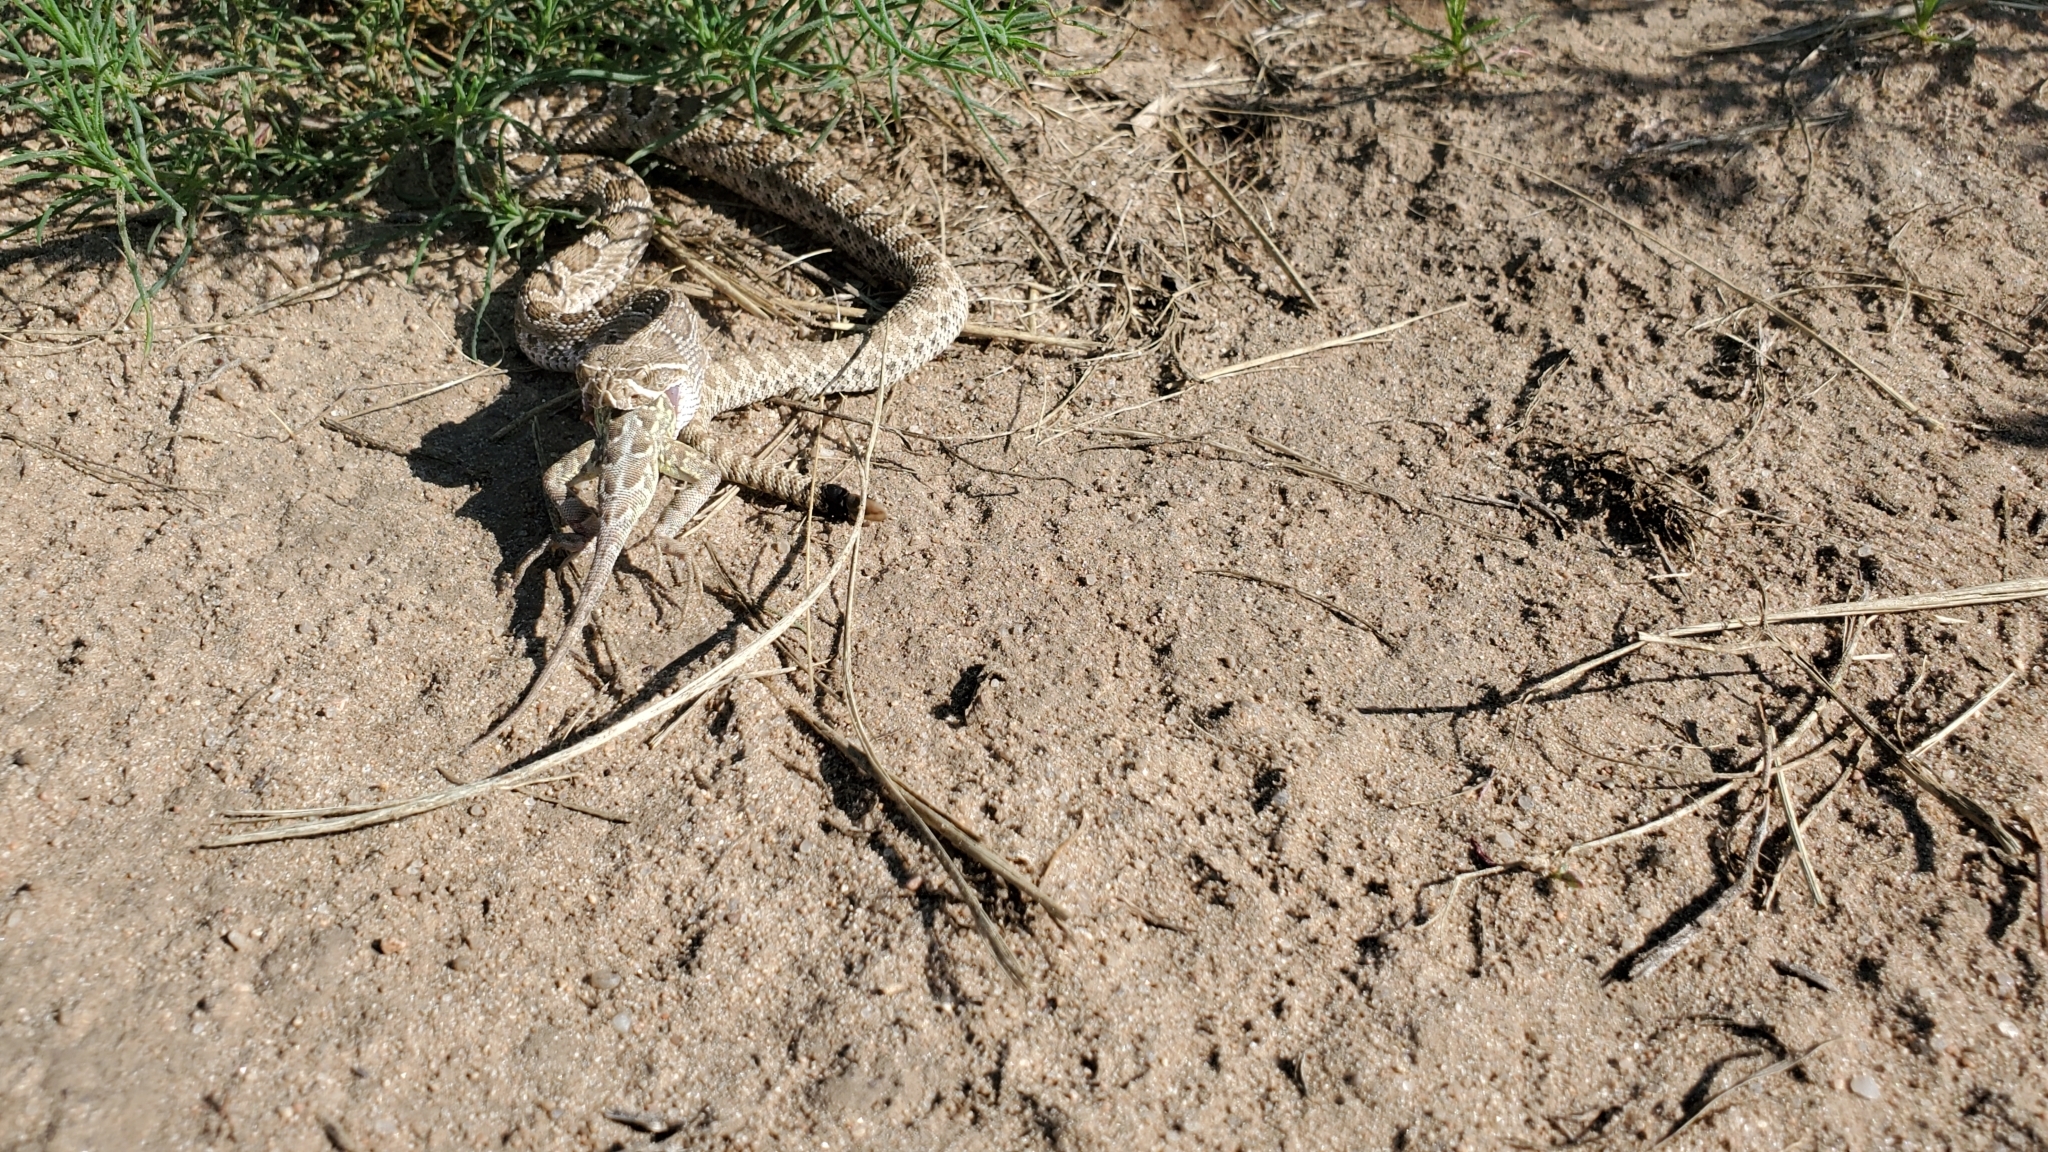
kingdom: Animalia
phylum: Chordata
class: Squamata
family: Phrynosomatidae
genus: Holbrookia
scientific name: Holbrookia maculata
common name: Lesser earless lizard
